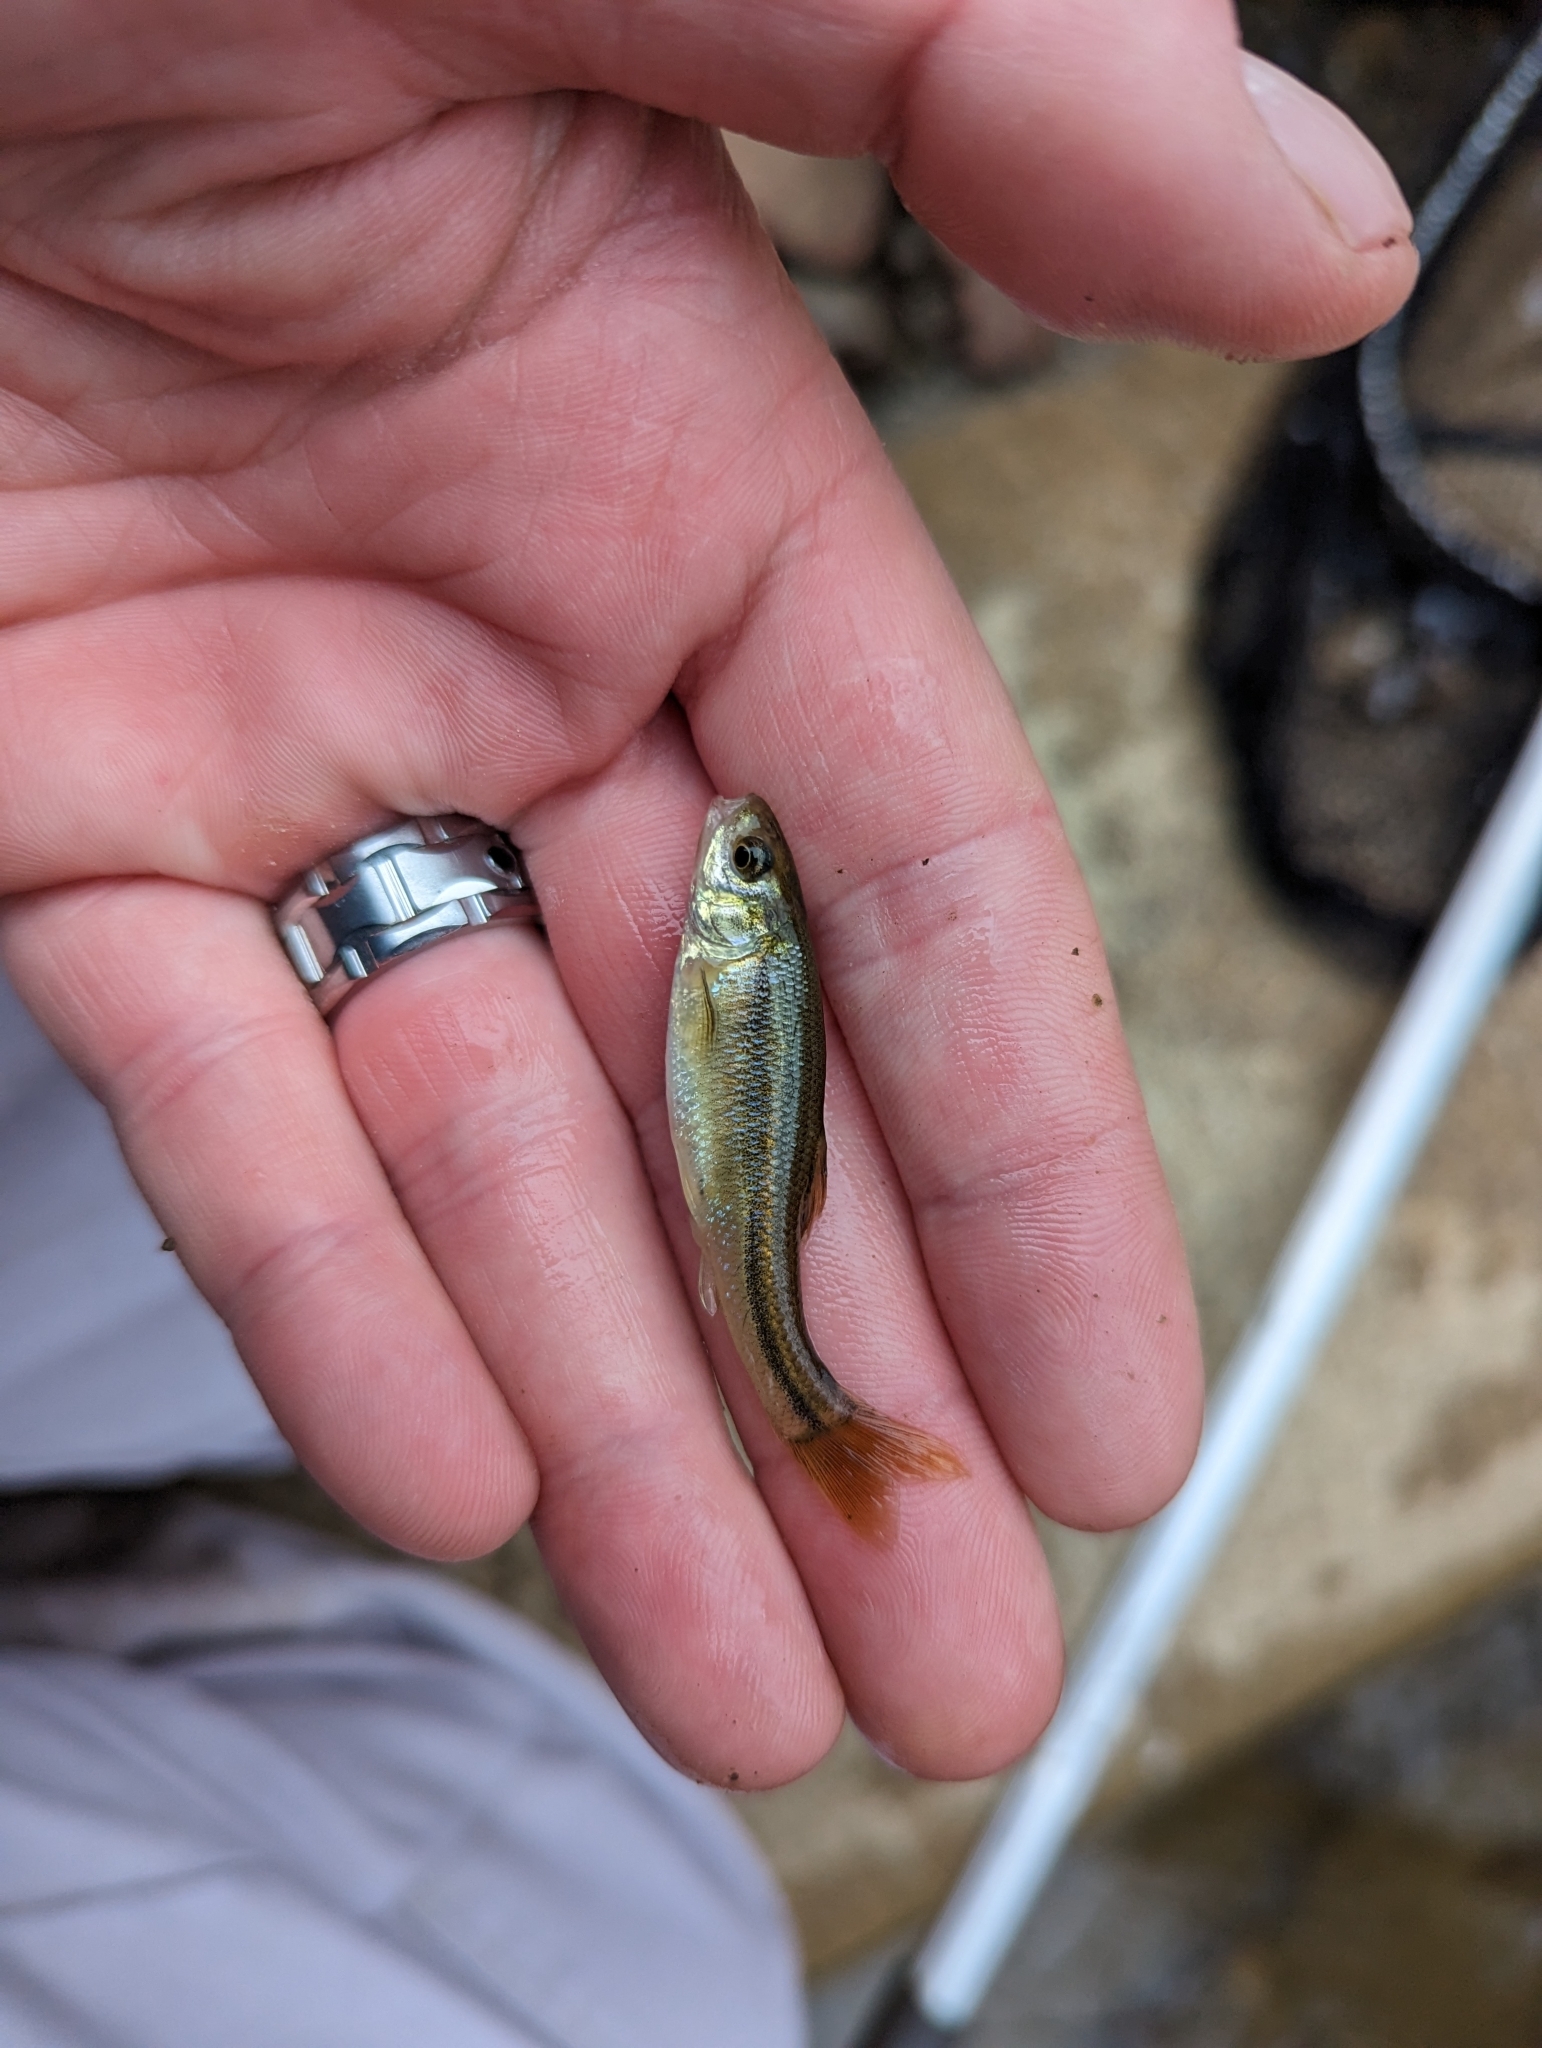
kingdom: Animalia
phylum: Chordata
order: Cypriniformes
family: Cyprinidae
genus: Pimephales
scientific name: Pimephales promelas
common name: Fathead minnow
